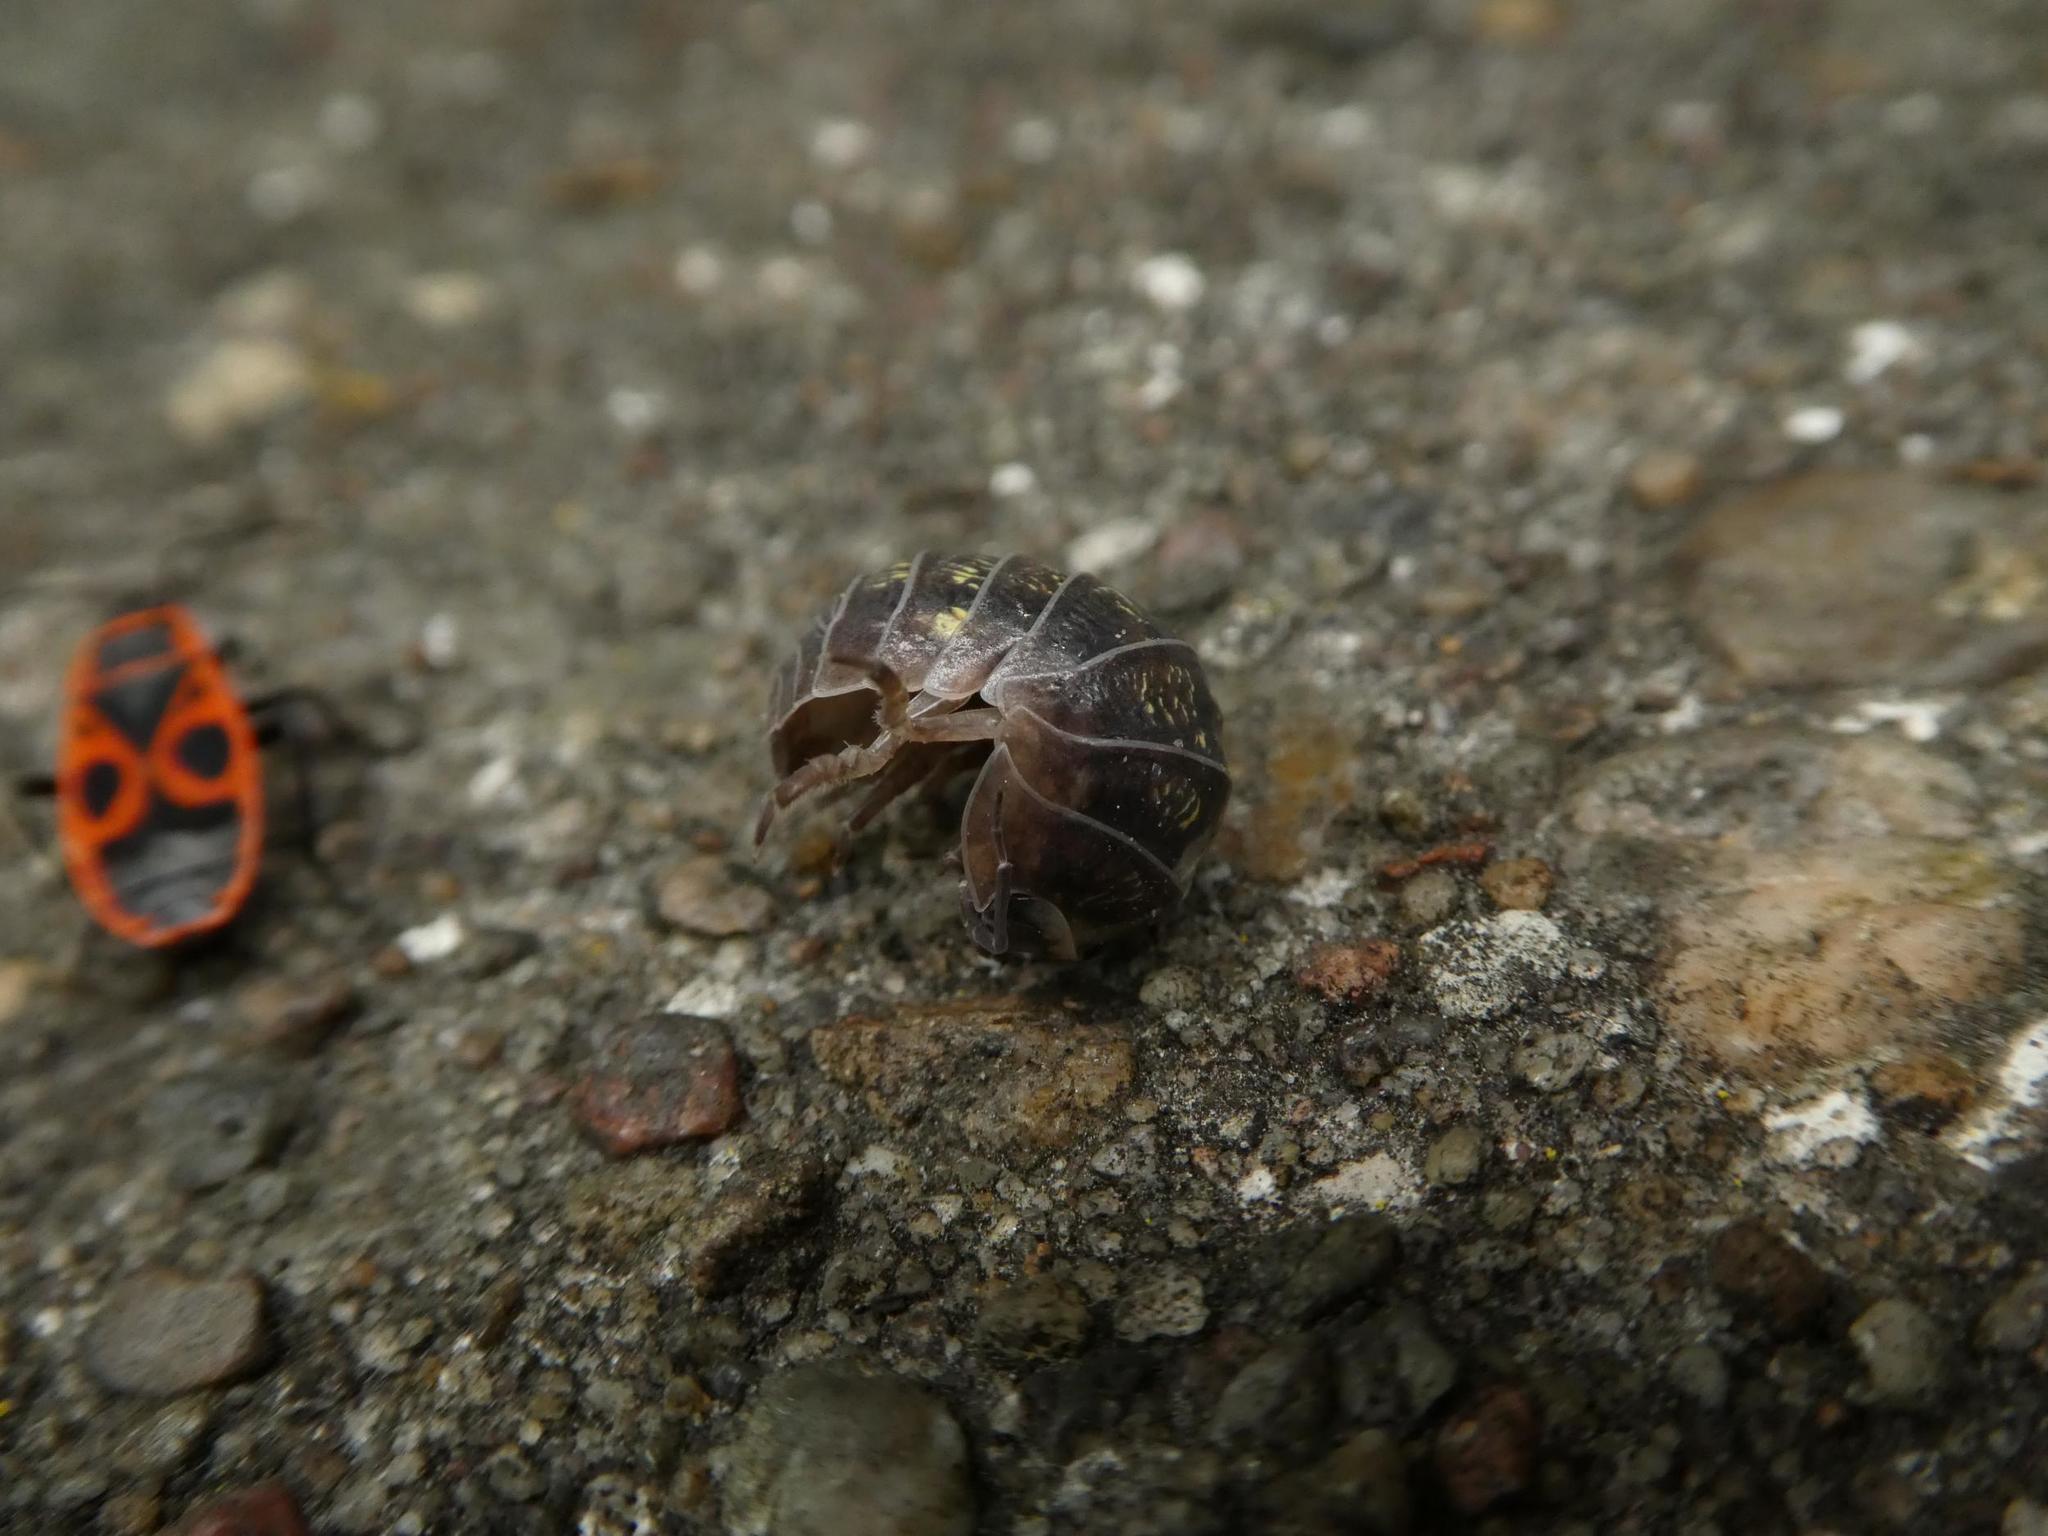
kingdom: Animalia
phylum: Arthropoda
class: Malacostraca
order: Isopoda
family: Armadillidiidae
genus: Armadillidium
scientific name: Armadillidium vulgare
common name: Common pill woodlouse
